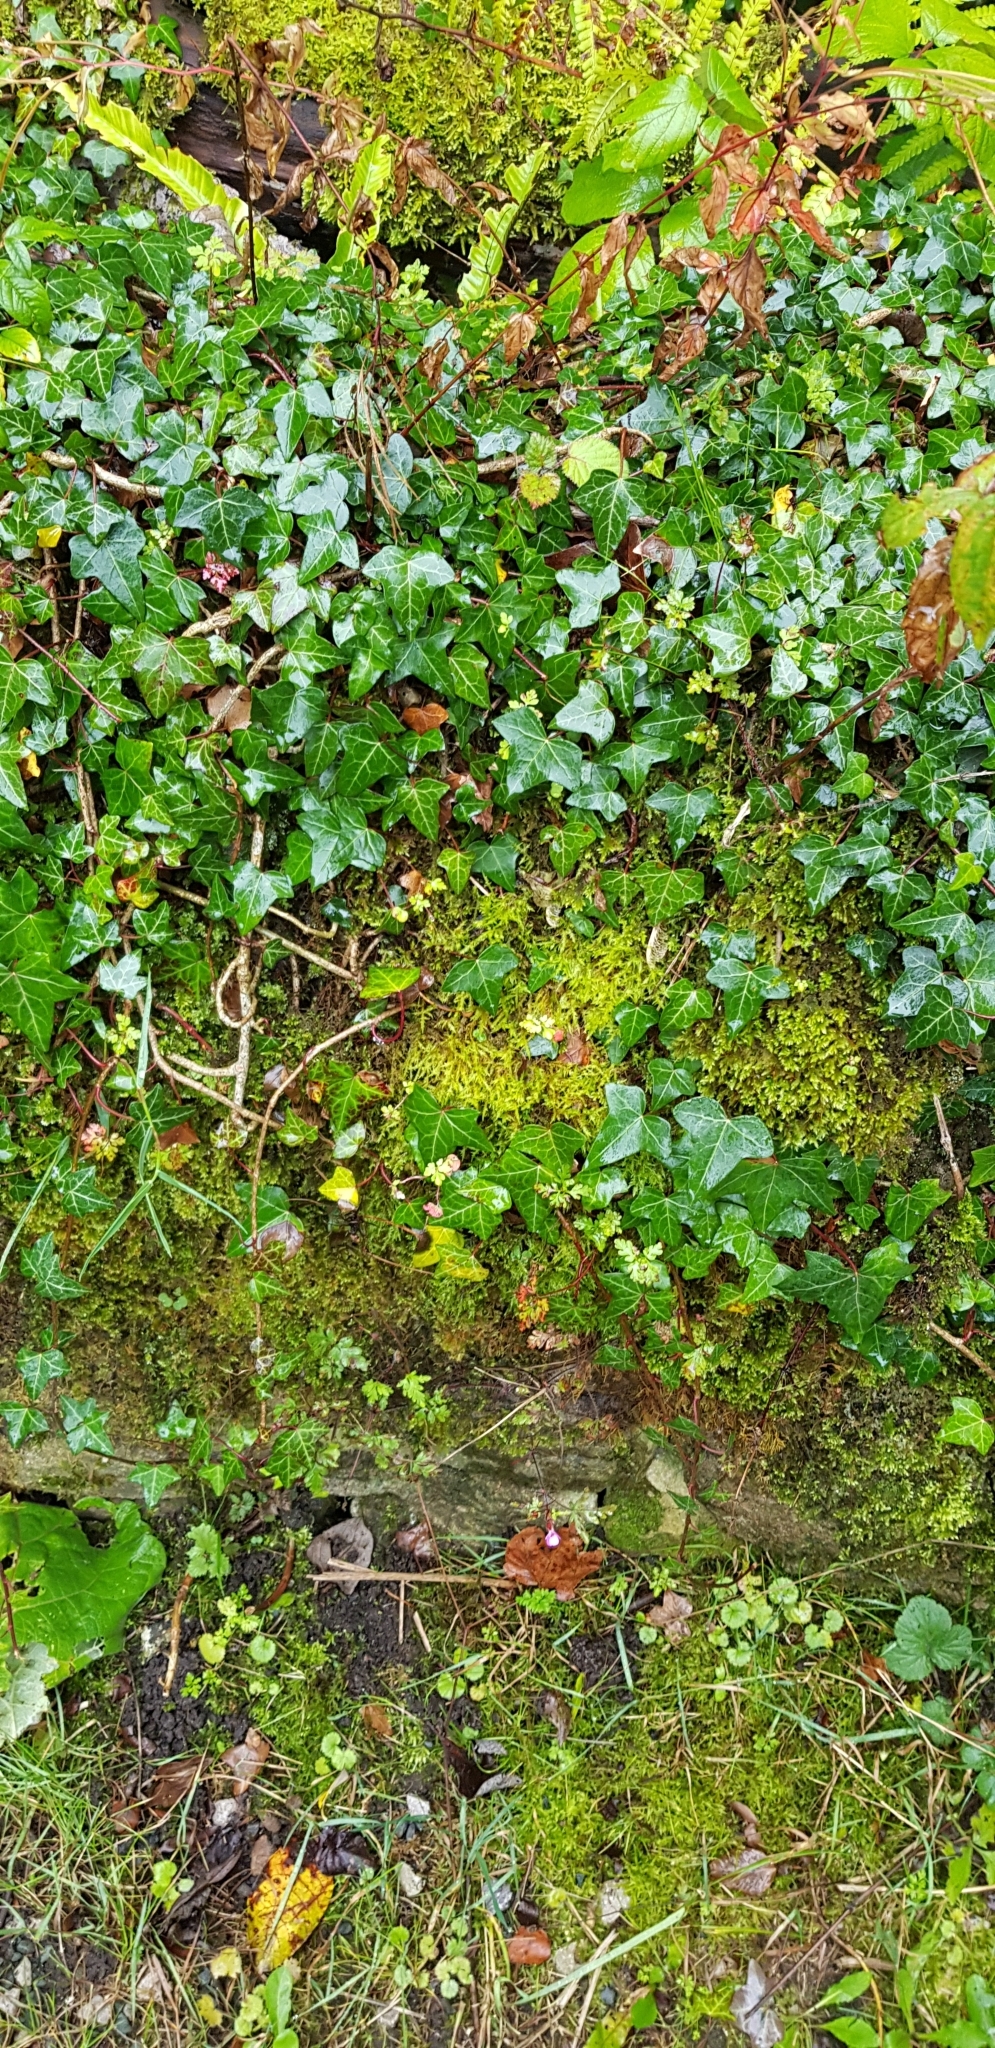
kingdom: Plantae
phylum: Bryophyta
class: Bryopsida
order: Hypnales
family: Pylaisiaceae
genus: Calliergonella
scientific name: Calliergonella cuspidata
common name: Common large wetland moss
